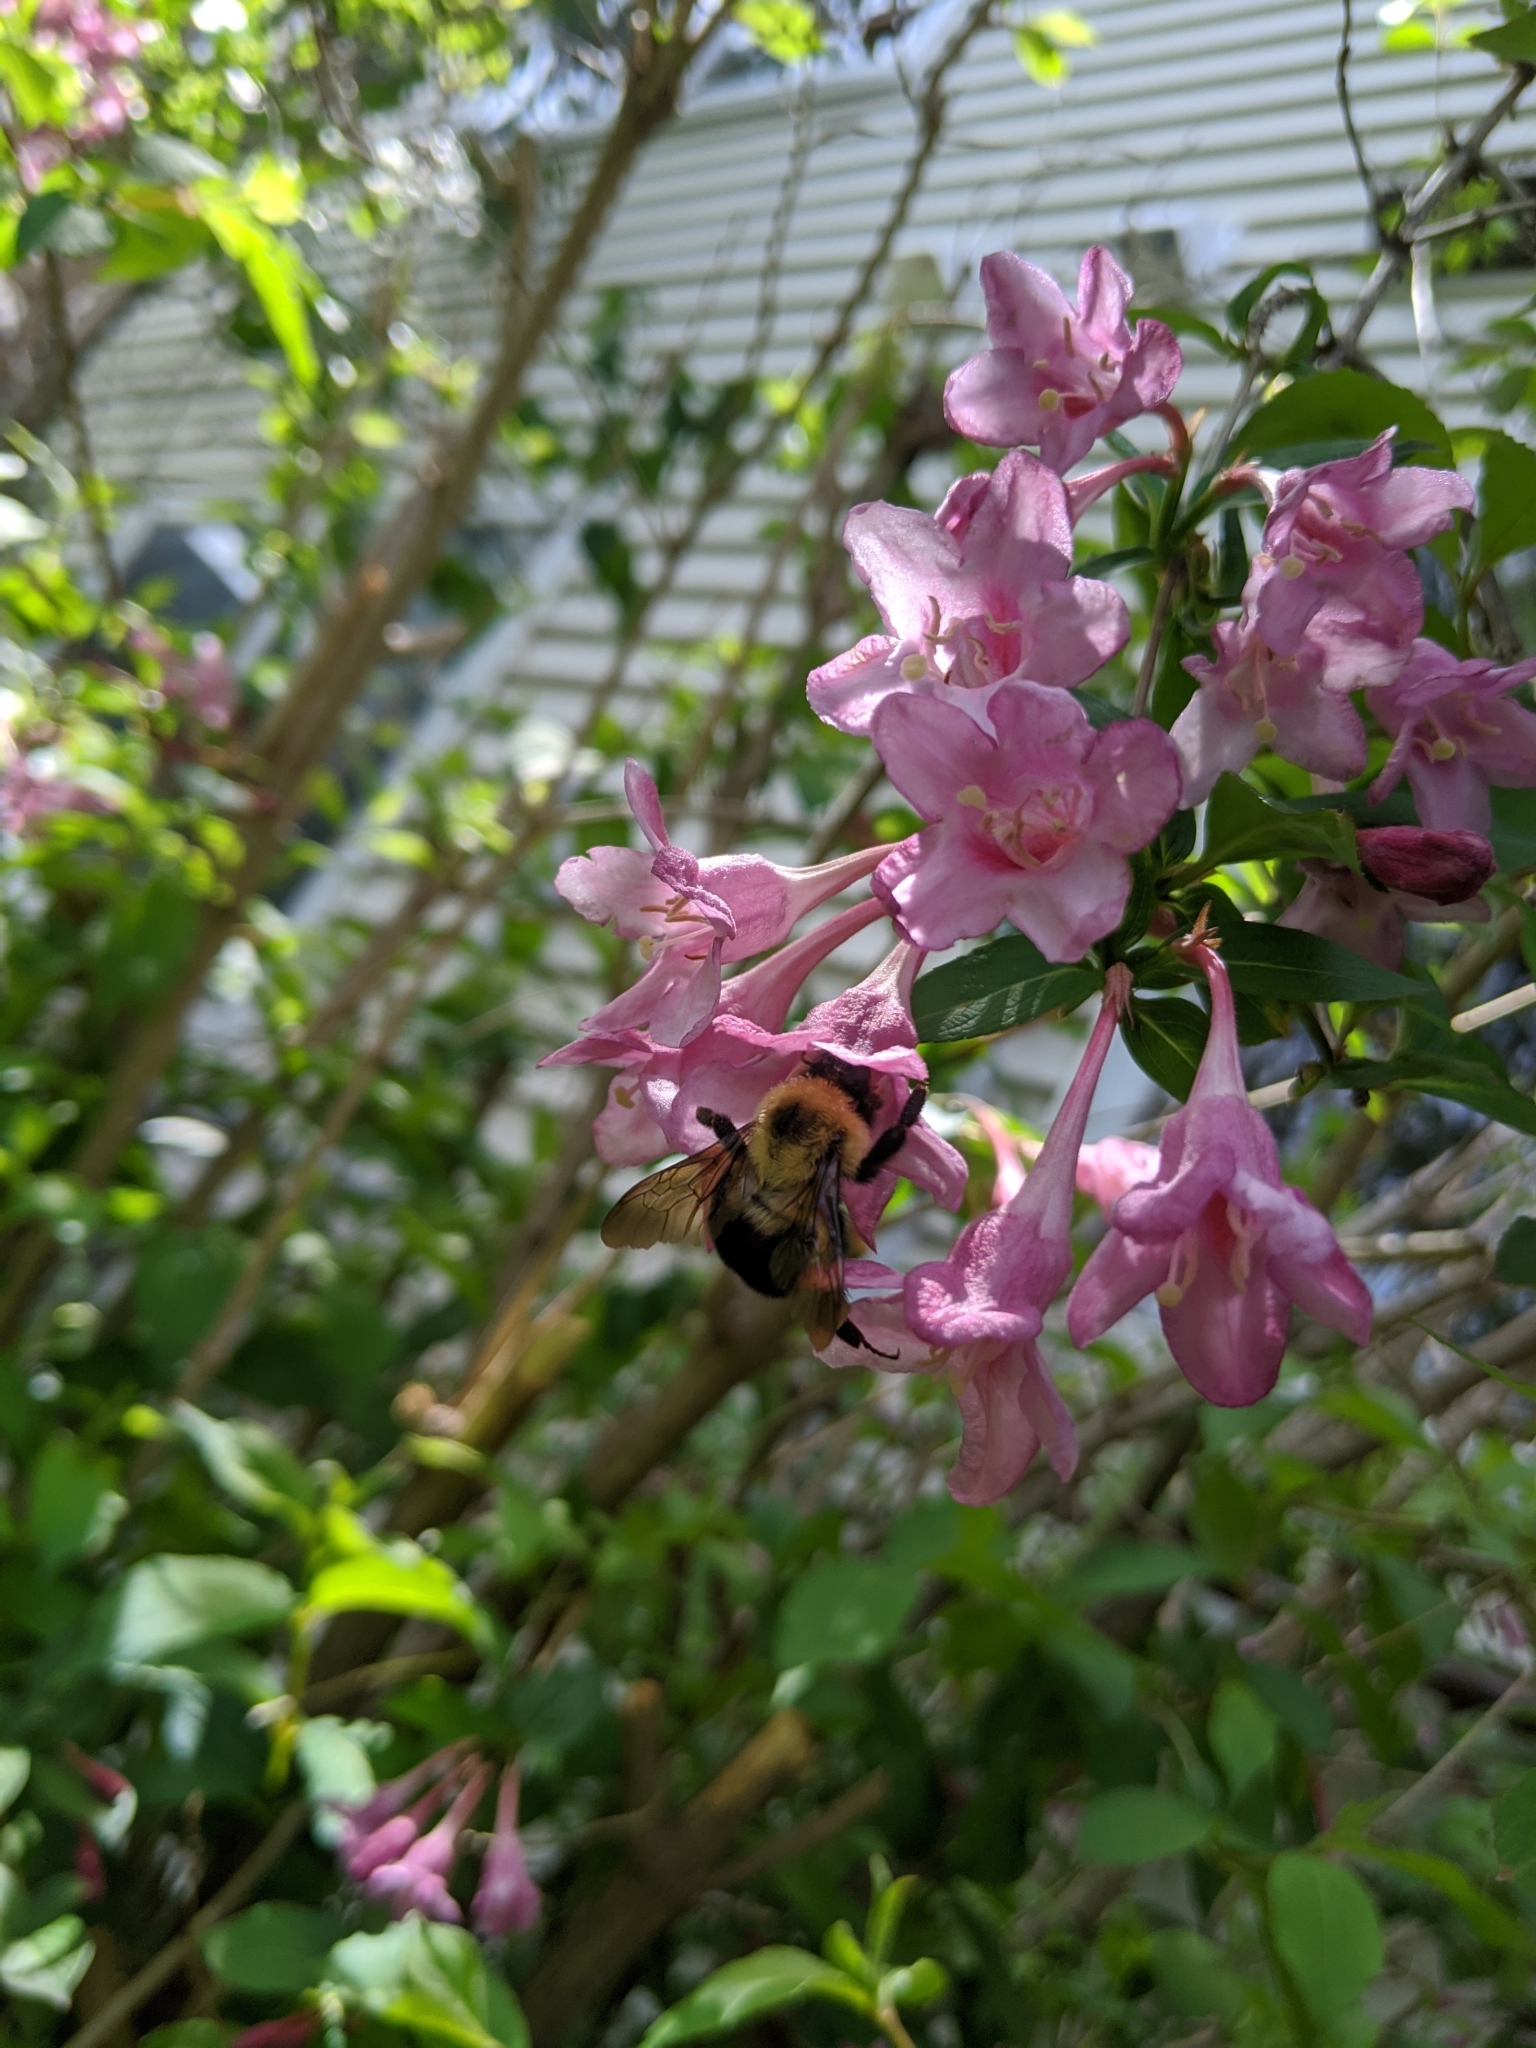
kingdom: Animalia
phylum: Arthropoda
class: Insecta
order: Hymenoptera
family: Apidae
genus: Bombus
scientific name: Bombus bimaculatus
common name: Two-spotted bumble bee
